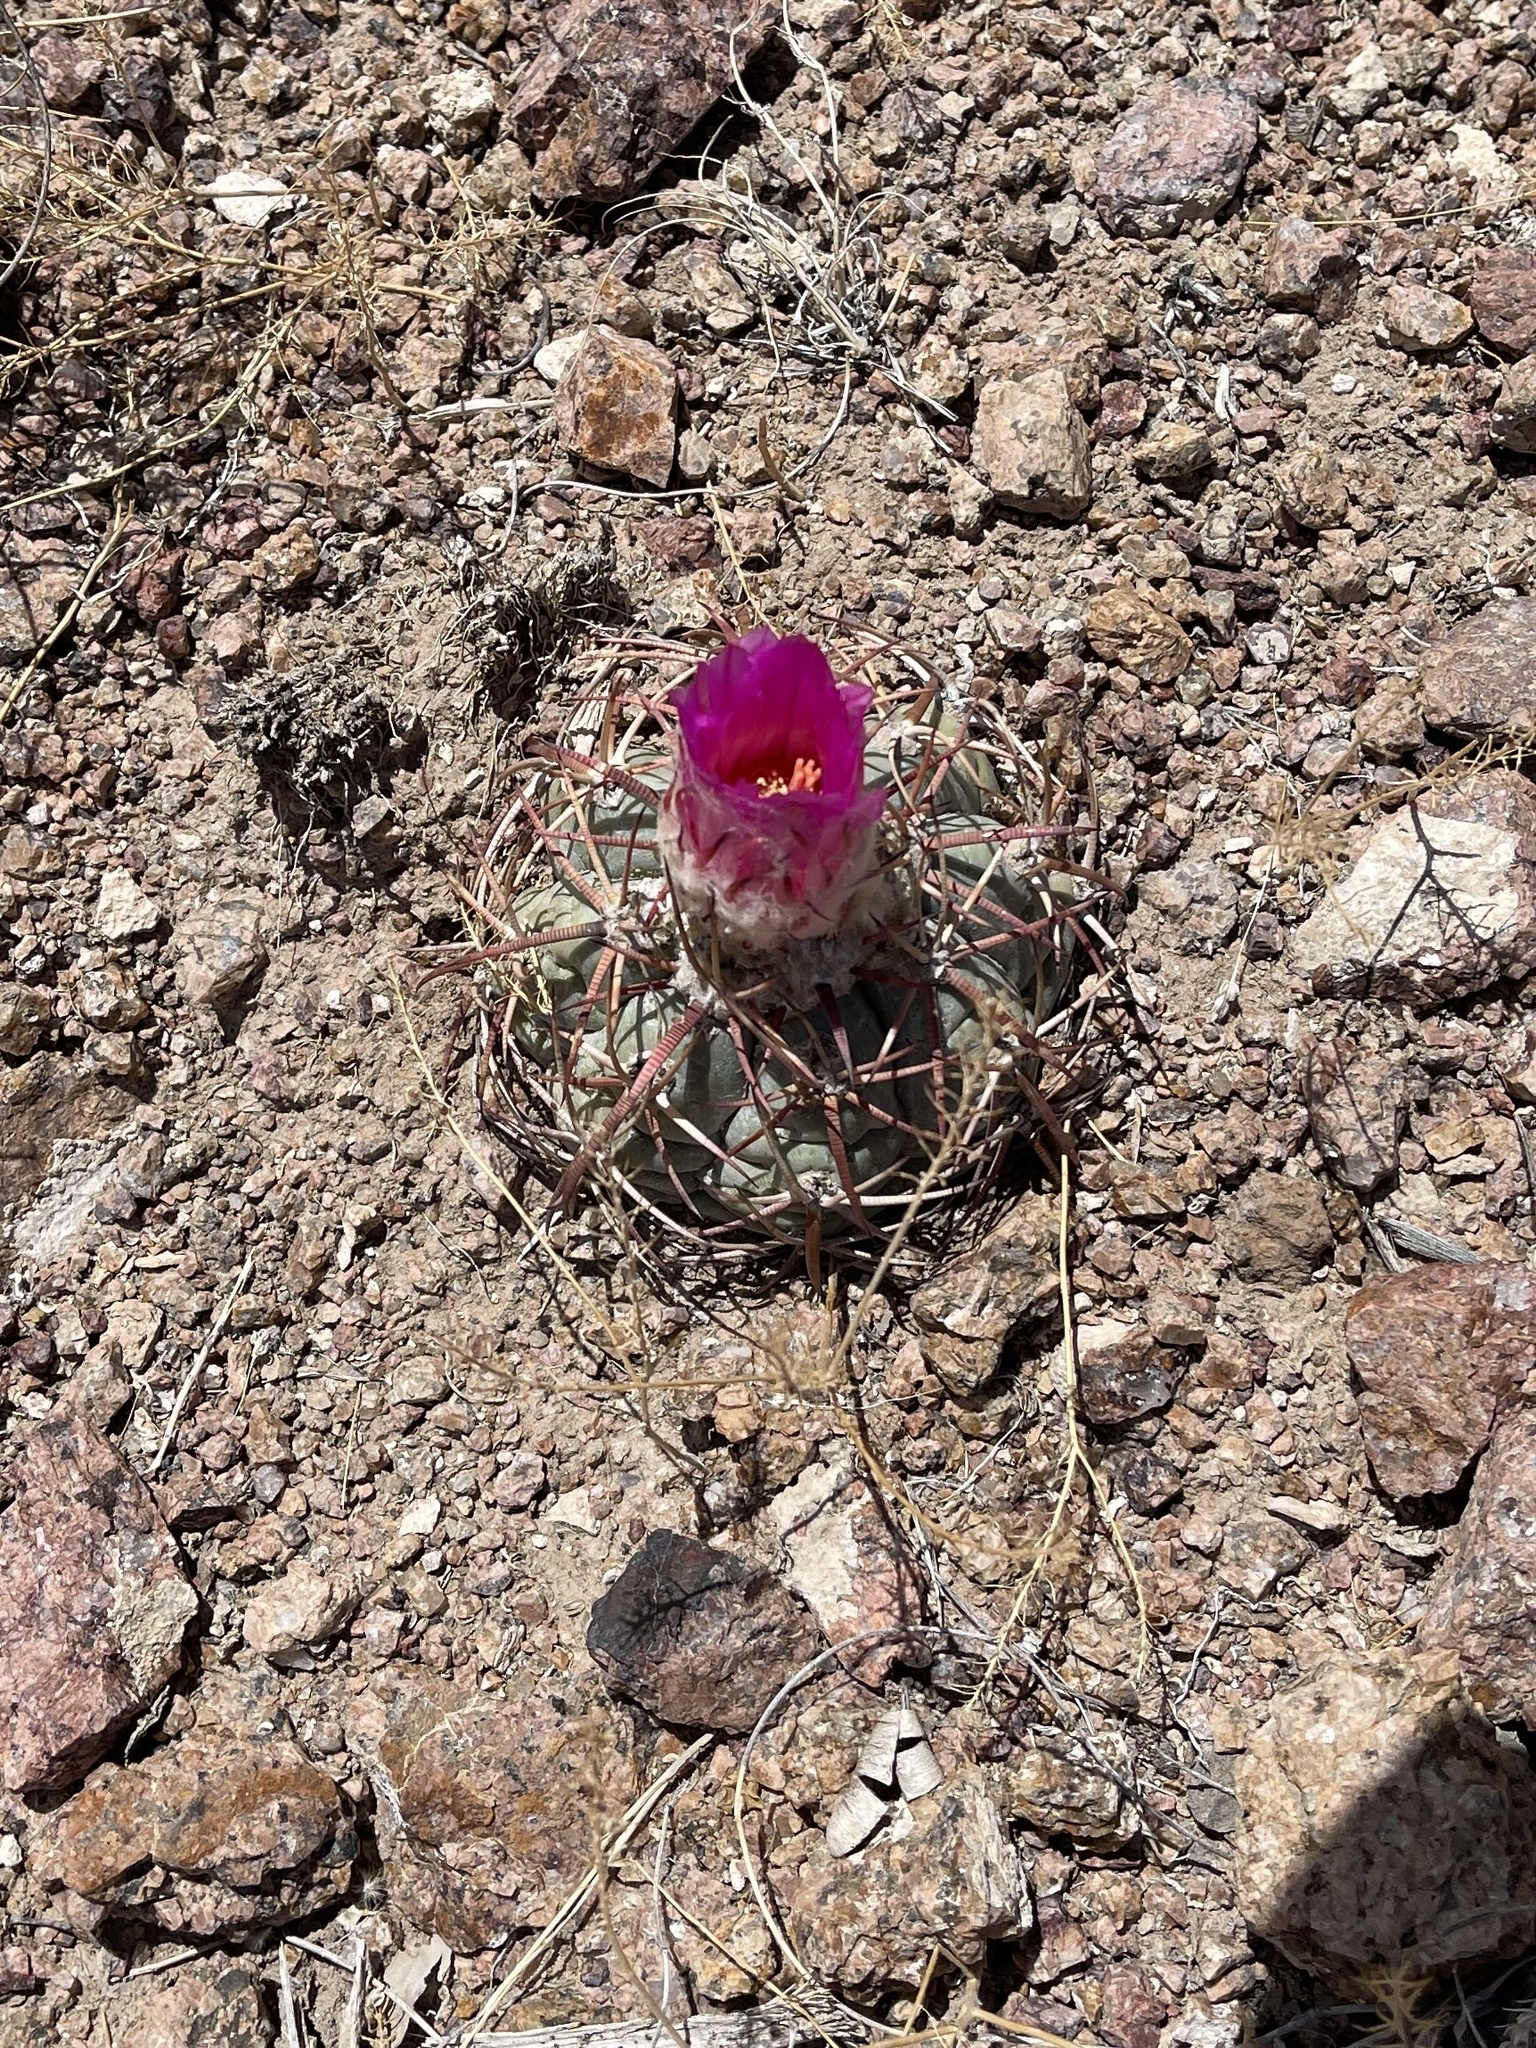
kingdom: Plantae
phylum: Tracheophyta
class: Magnoliopsida
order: Caryophyllales
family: Cactaceae
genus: Echinocactus
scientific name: Echinocactus horizonthalonius
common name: Devilshead
